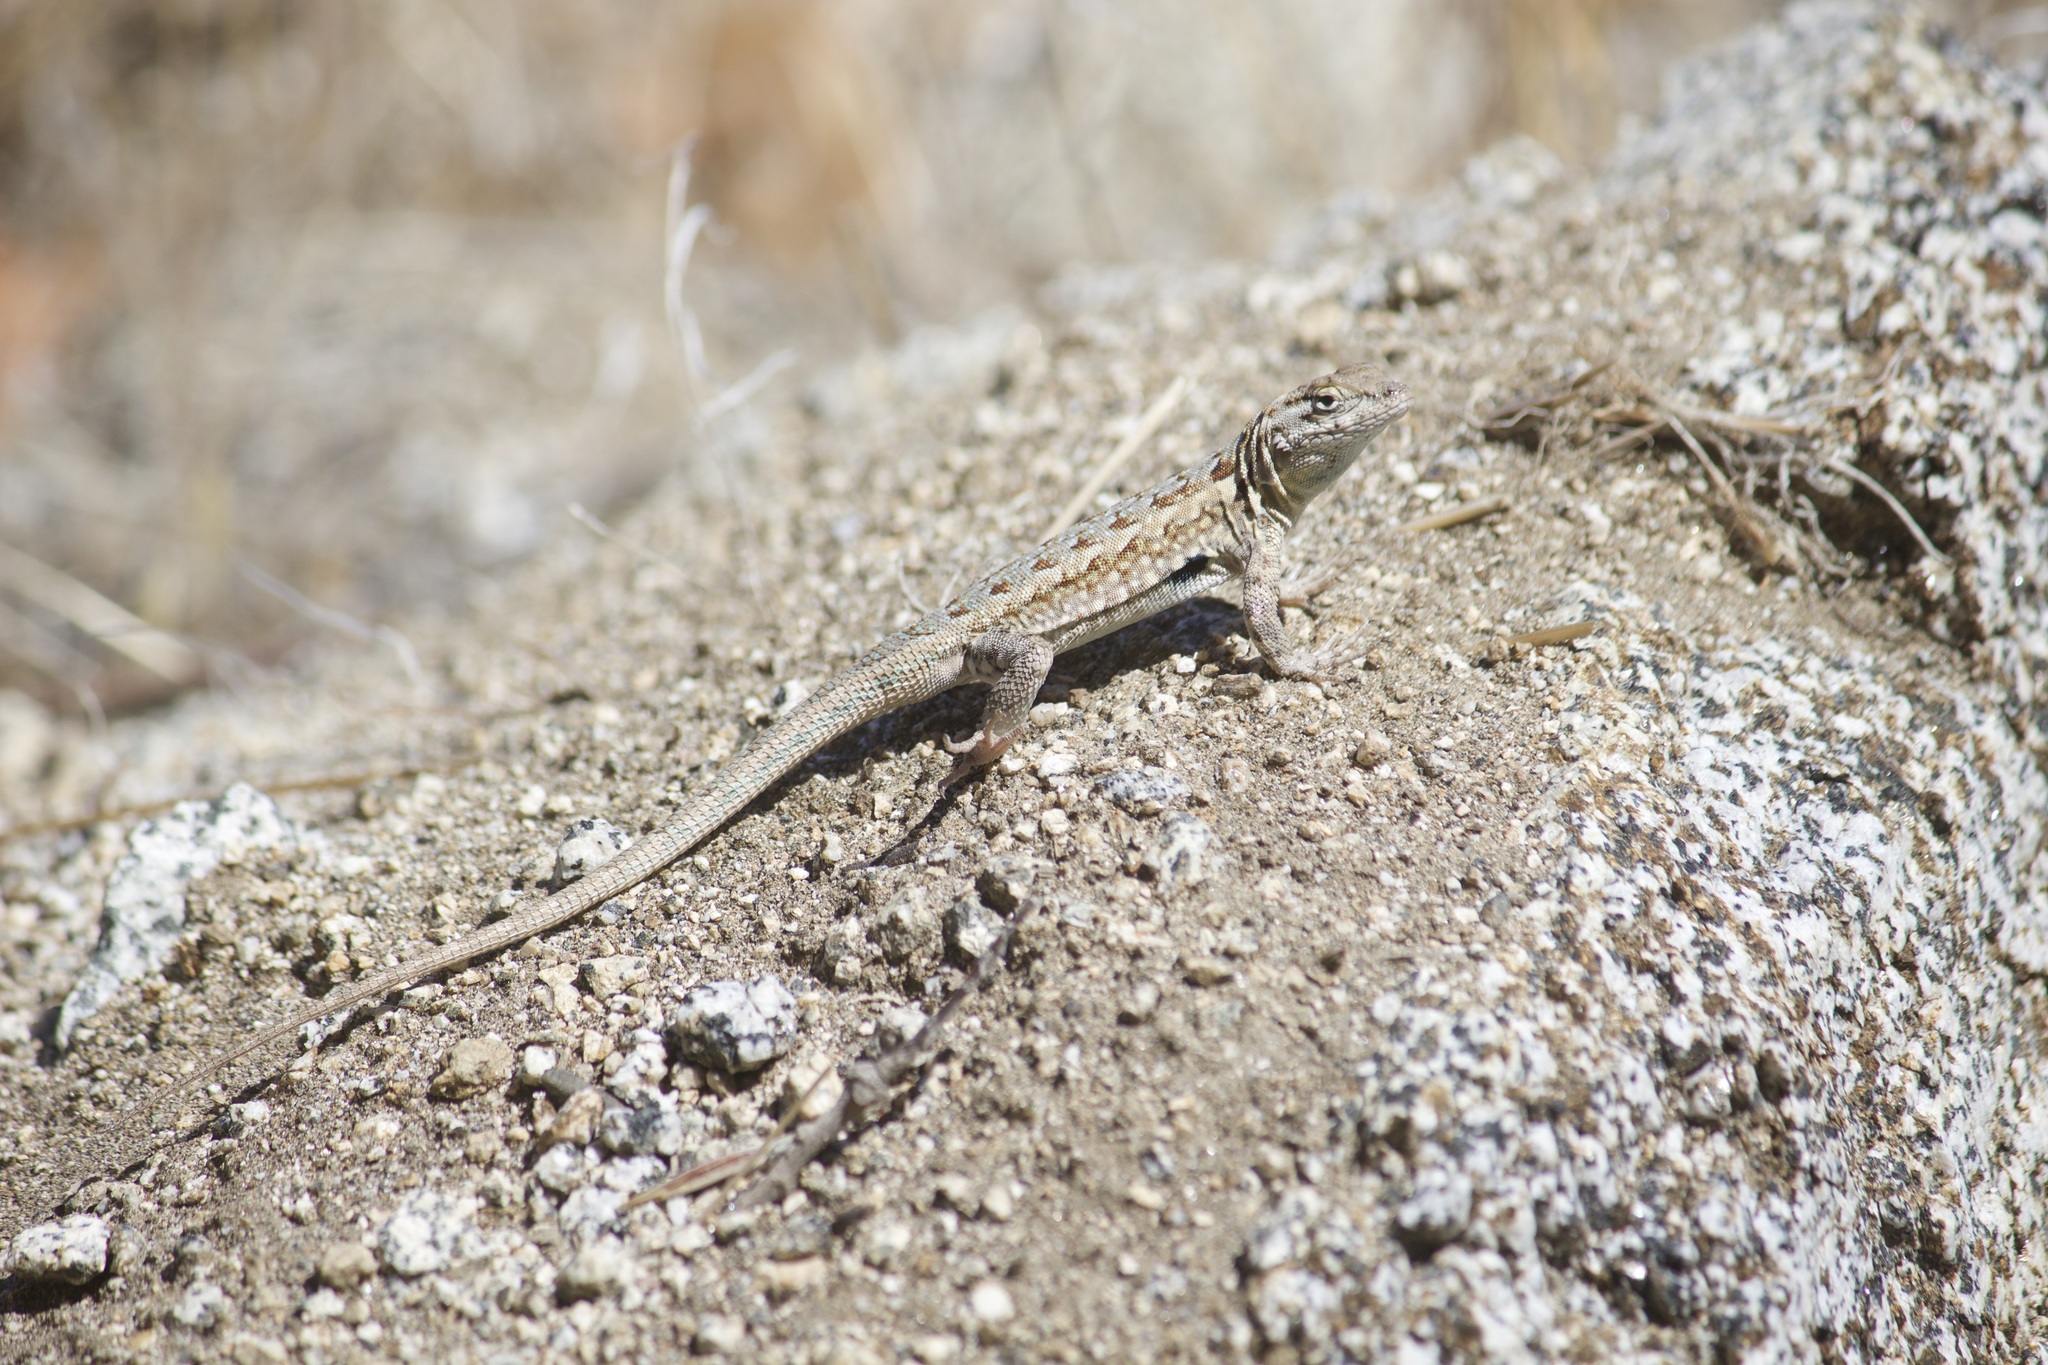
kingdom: Animalia
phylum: Chordata
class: Squamata
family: Phrynosomatidae
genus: Uta
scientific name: Uta stansburiana
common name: Side-blotched lizard
